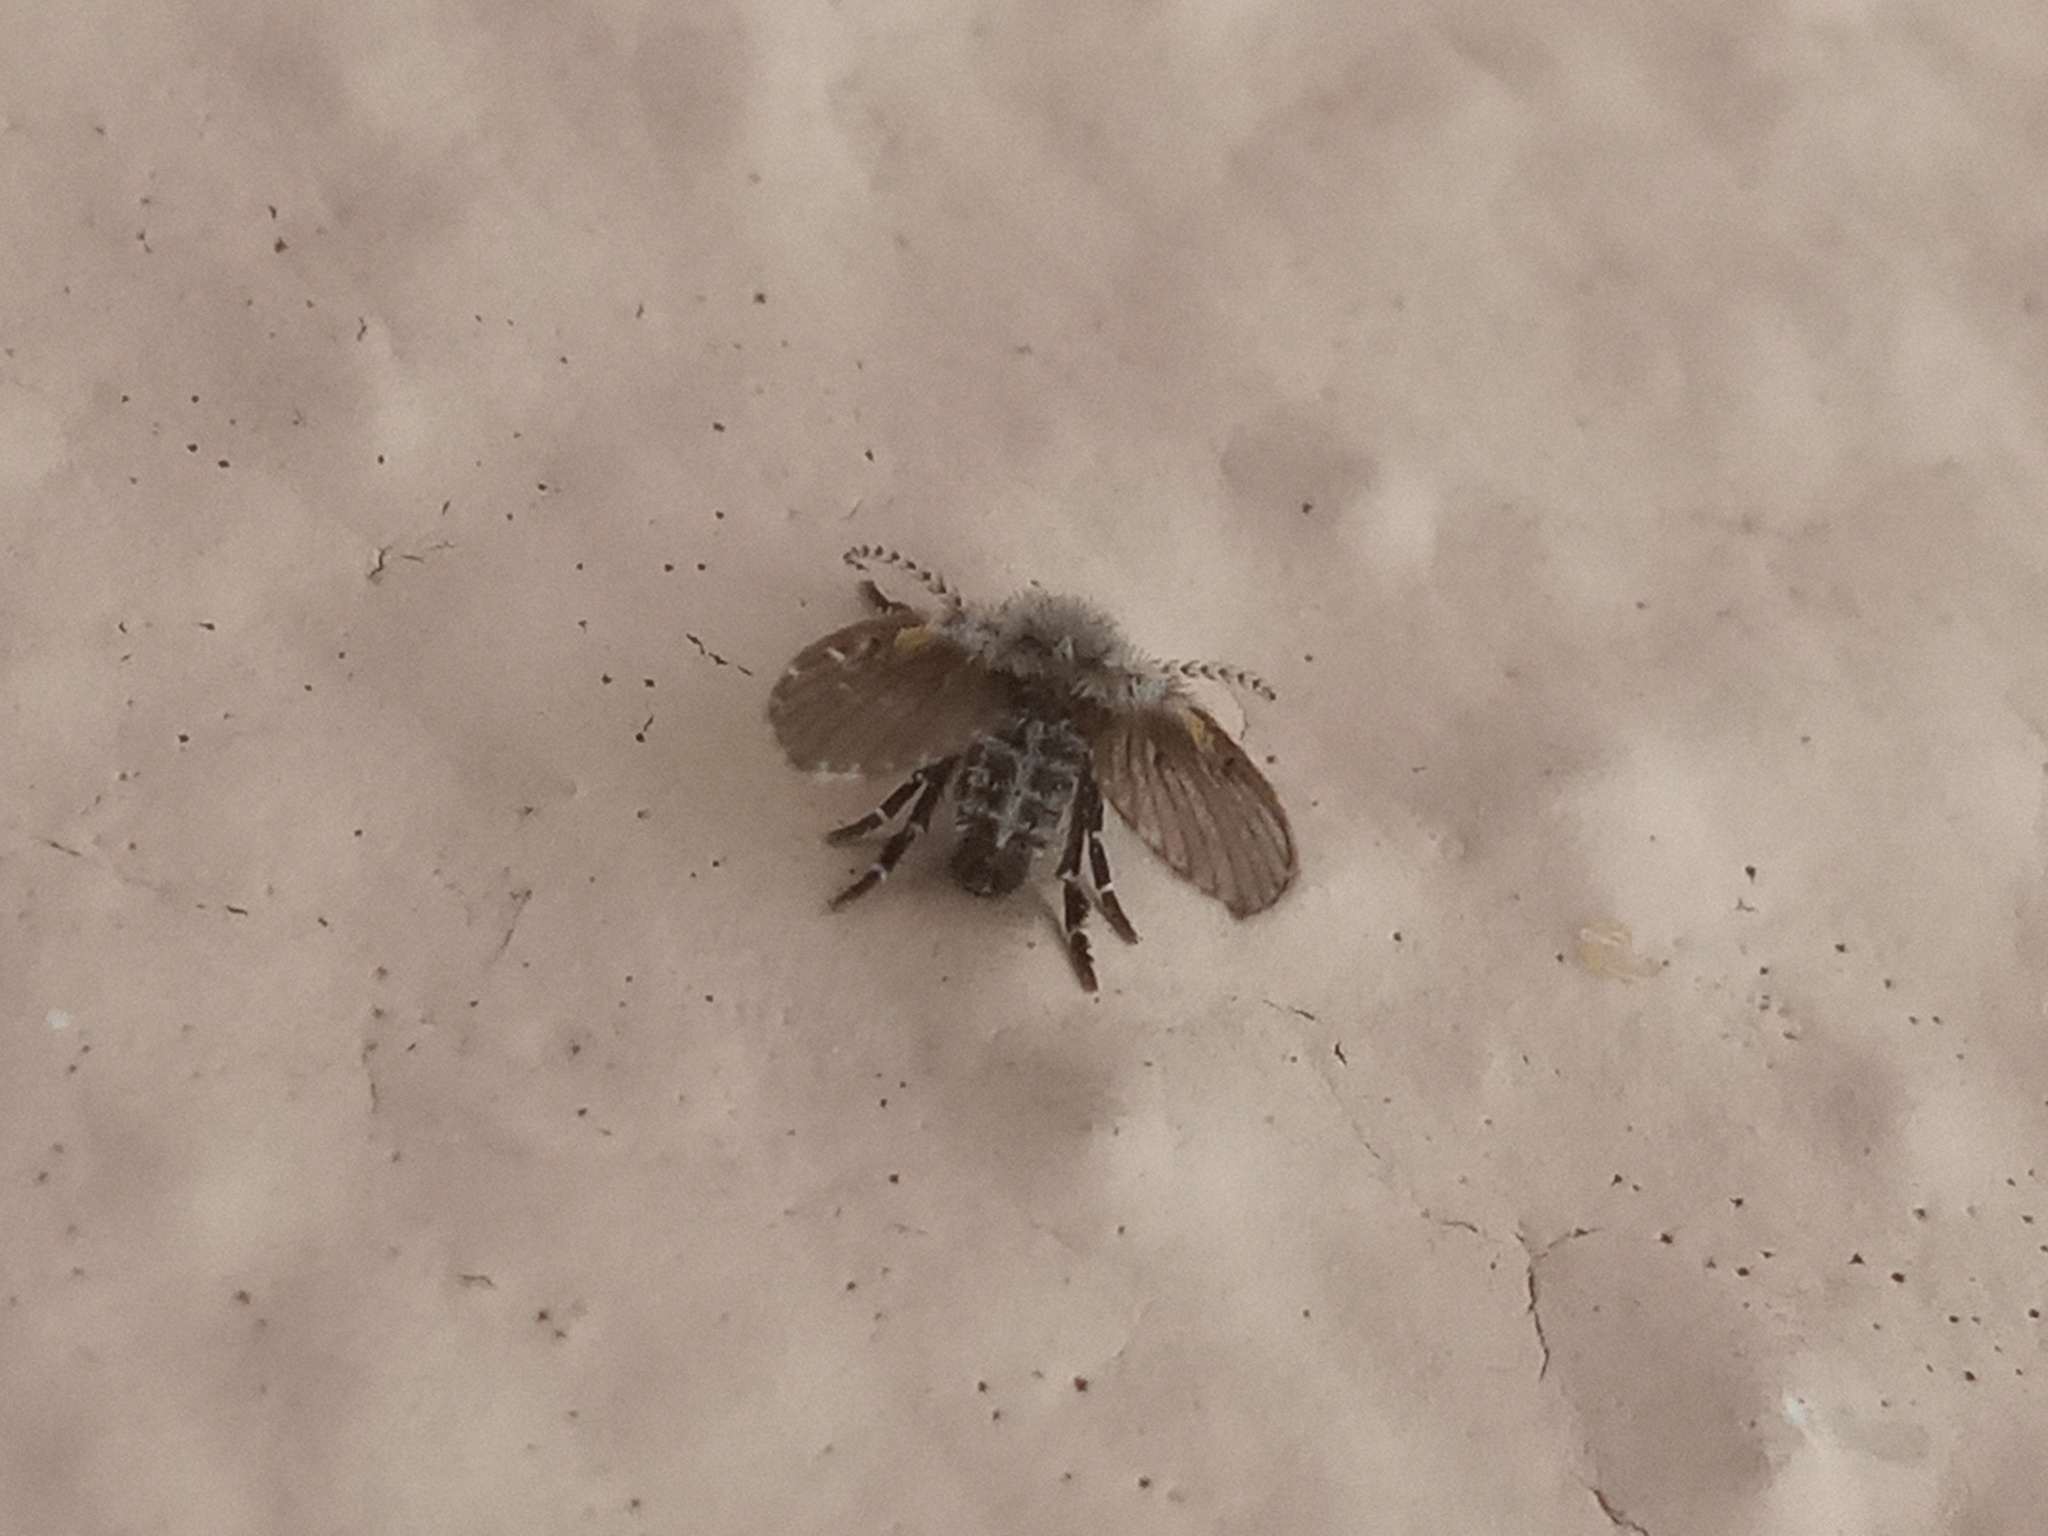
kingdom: Animalia
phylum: Arthropoda
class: Insecta
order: Diptera
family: Psychodidae
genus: Clogmia
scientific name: Clogmia albipunctatus
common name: White-spotted moth fly
